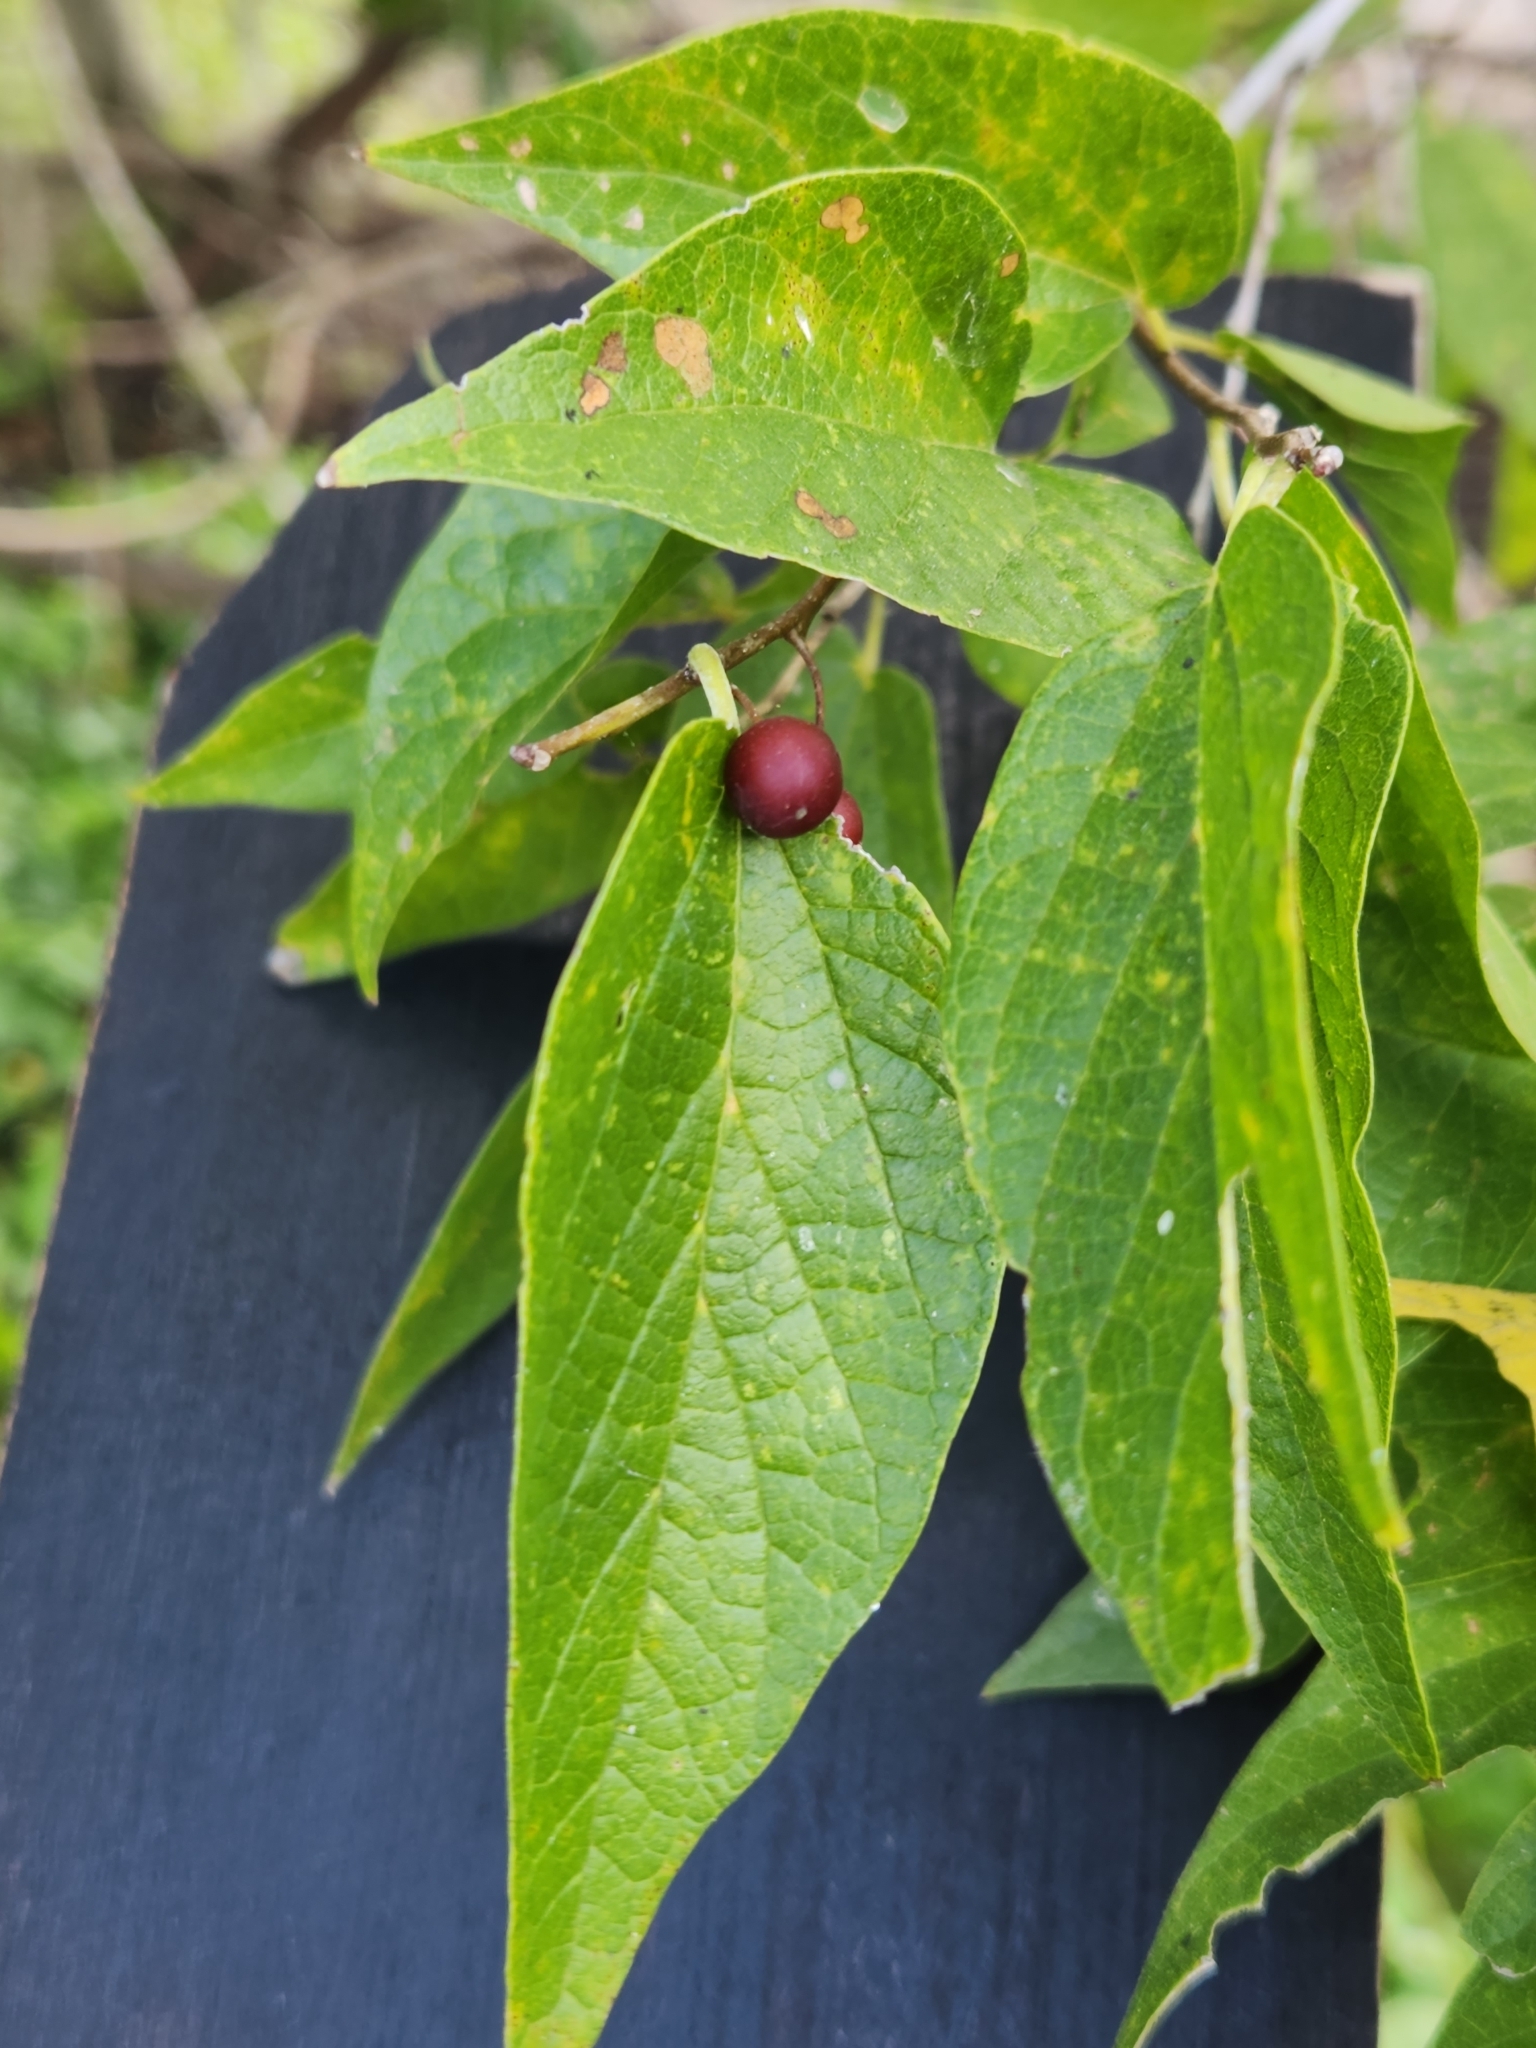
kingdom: Plantae
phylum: Tracheophyta
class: Magnoliopsida
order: Rosales
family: Cannabaceae
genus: Celtis
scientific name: Celtis laevigata
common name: Sugarberry
